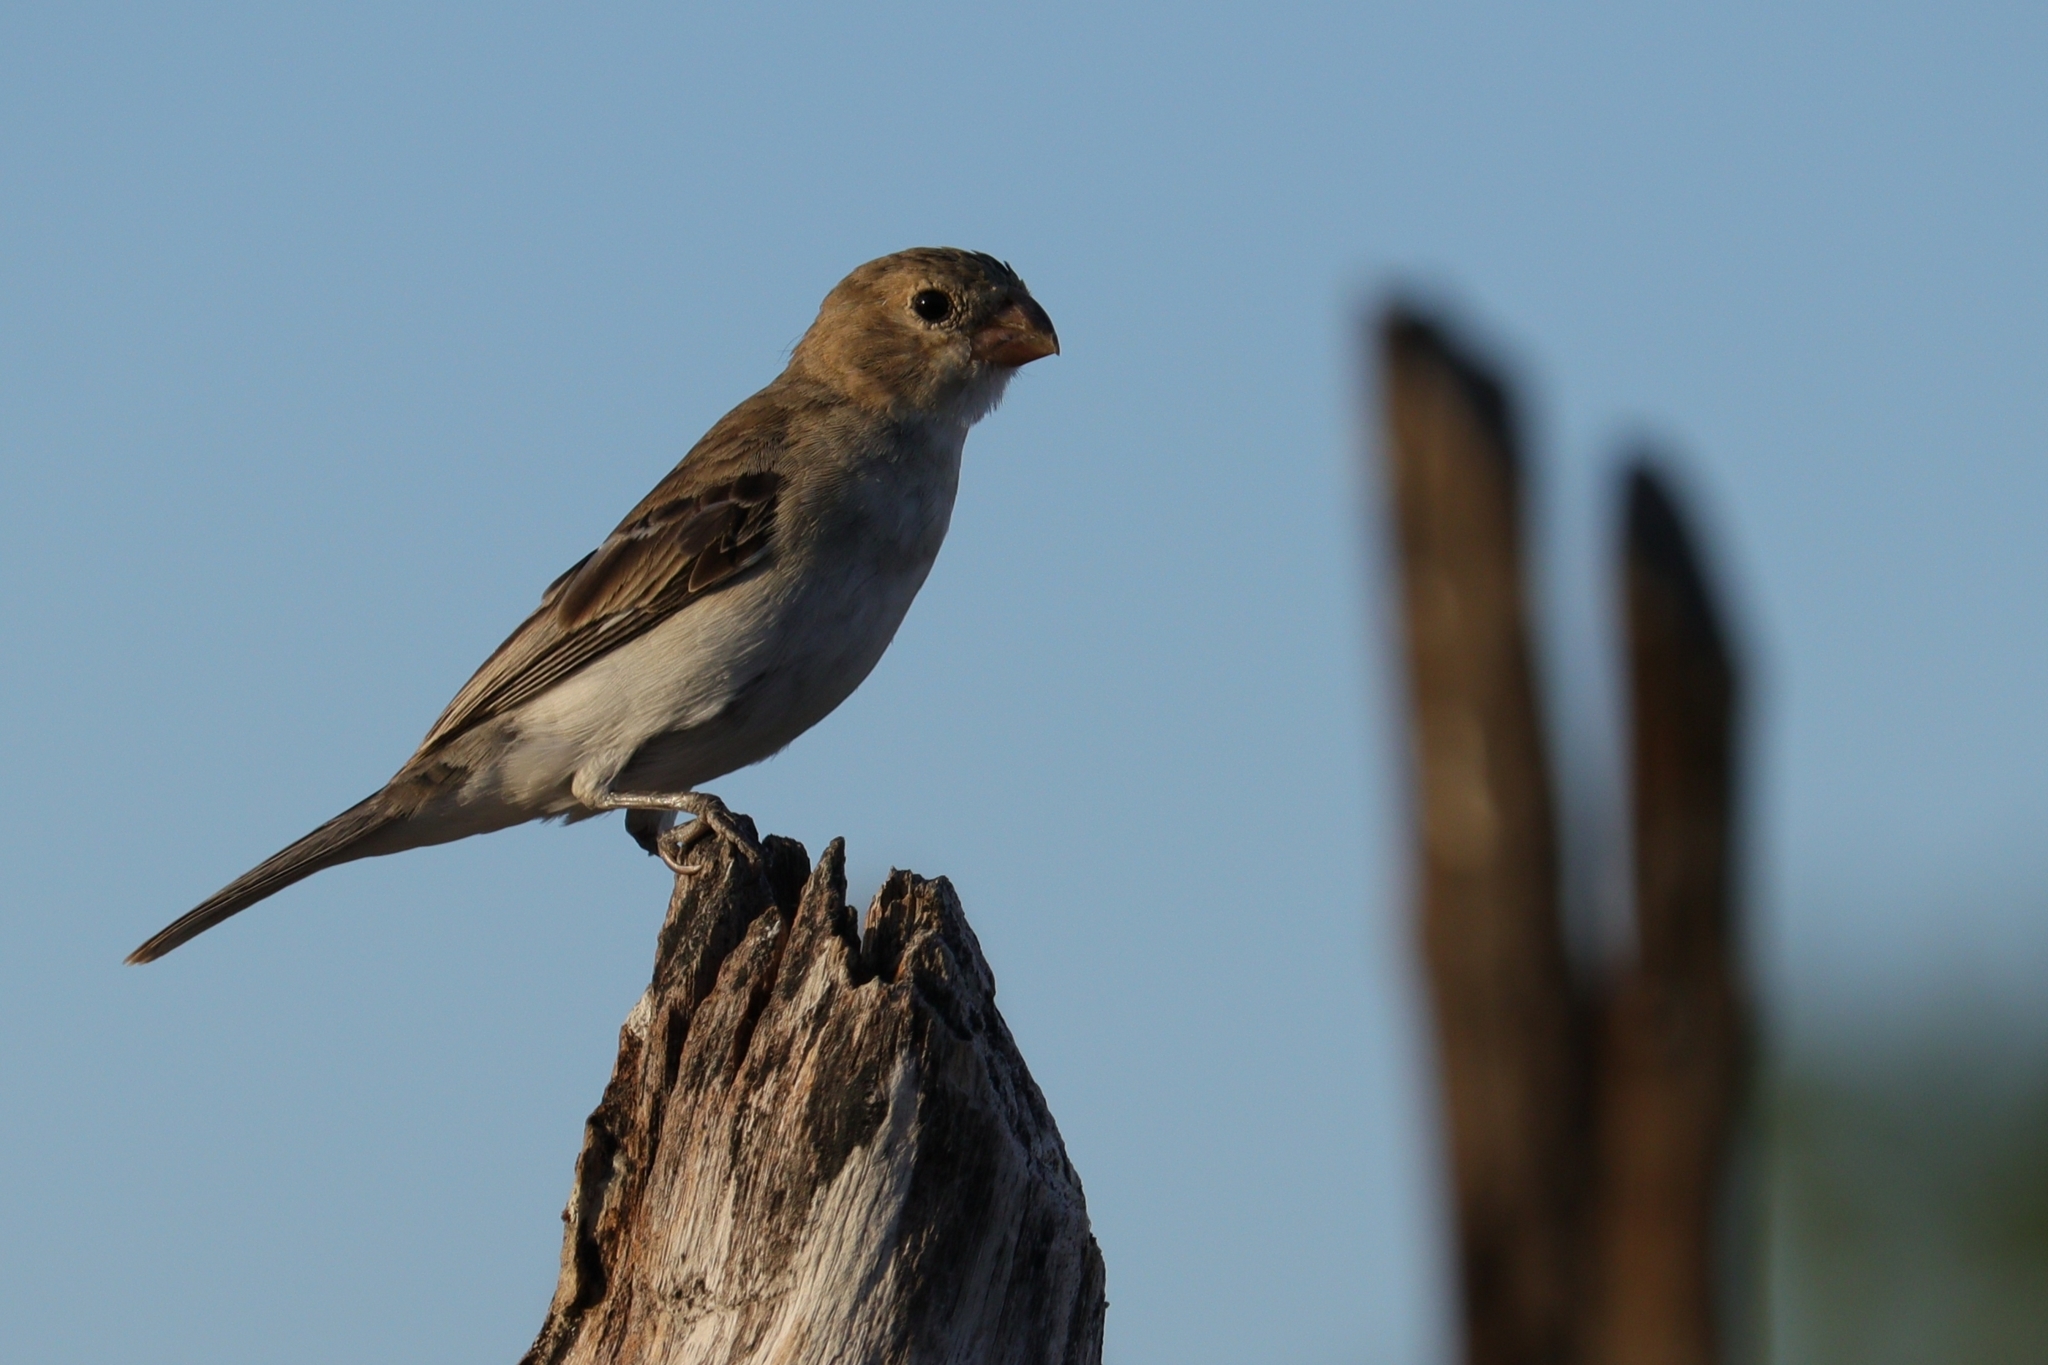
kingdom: Animalia
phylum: Chordata
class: Aves
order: Passeriformes
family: Thraupidae
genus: Sporophila
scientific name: Sporophila albogularis
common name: White-throated seedeater
